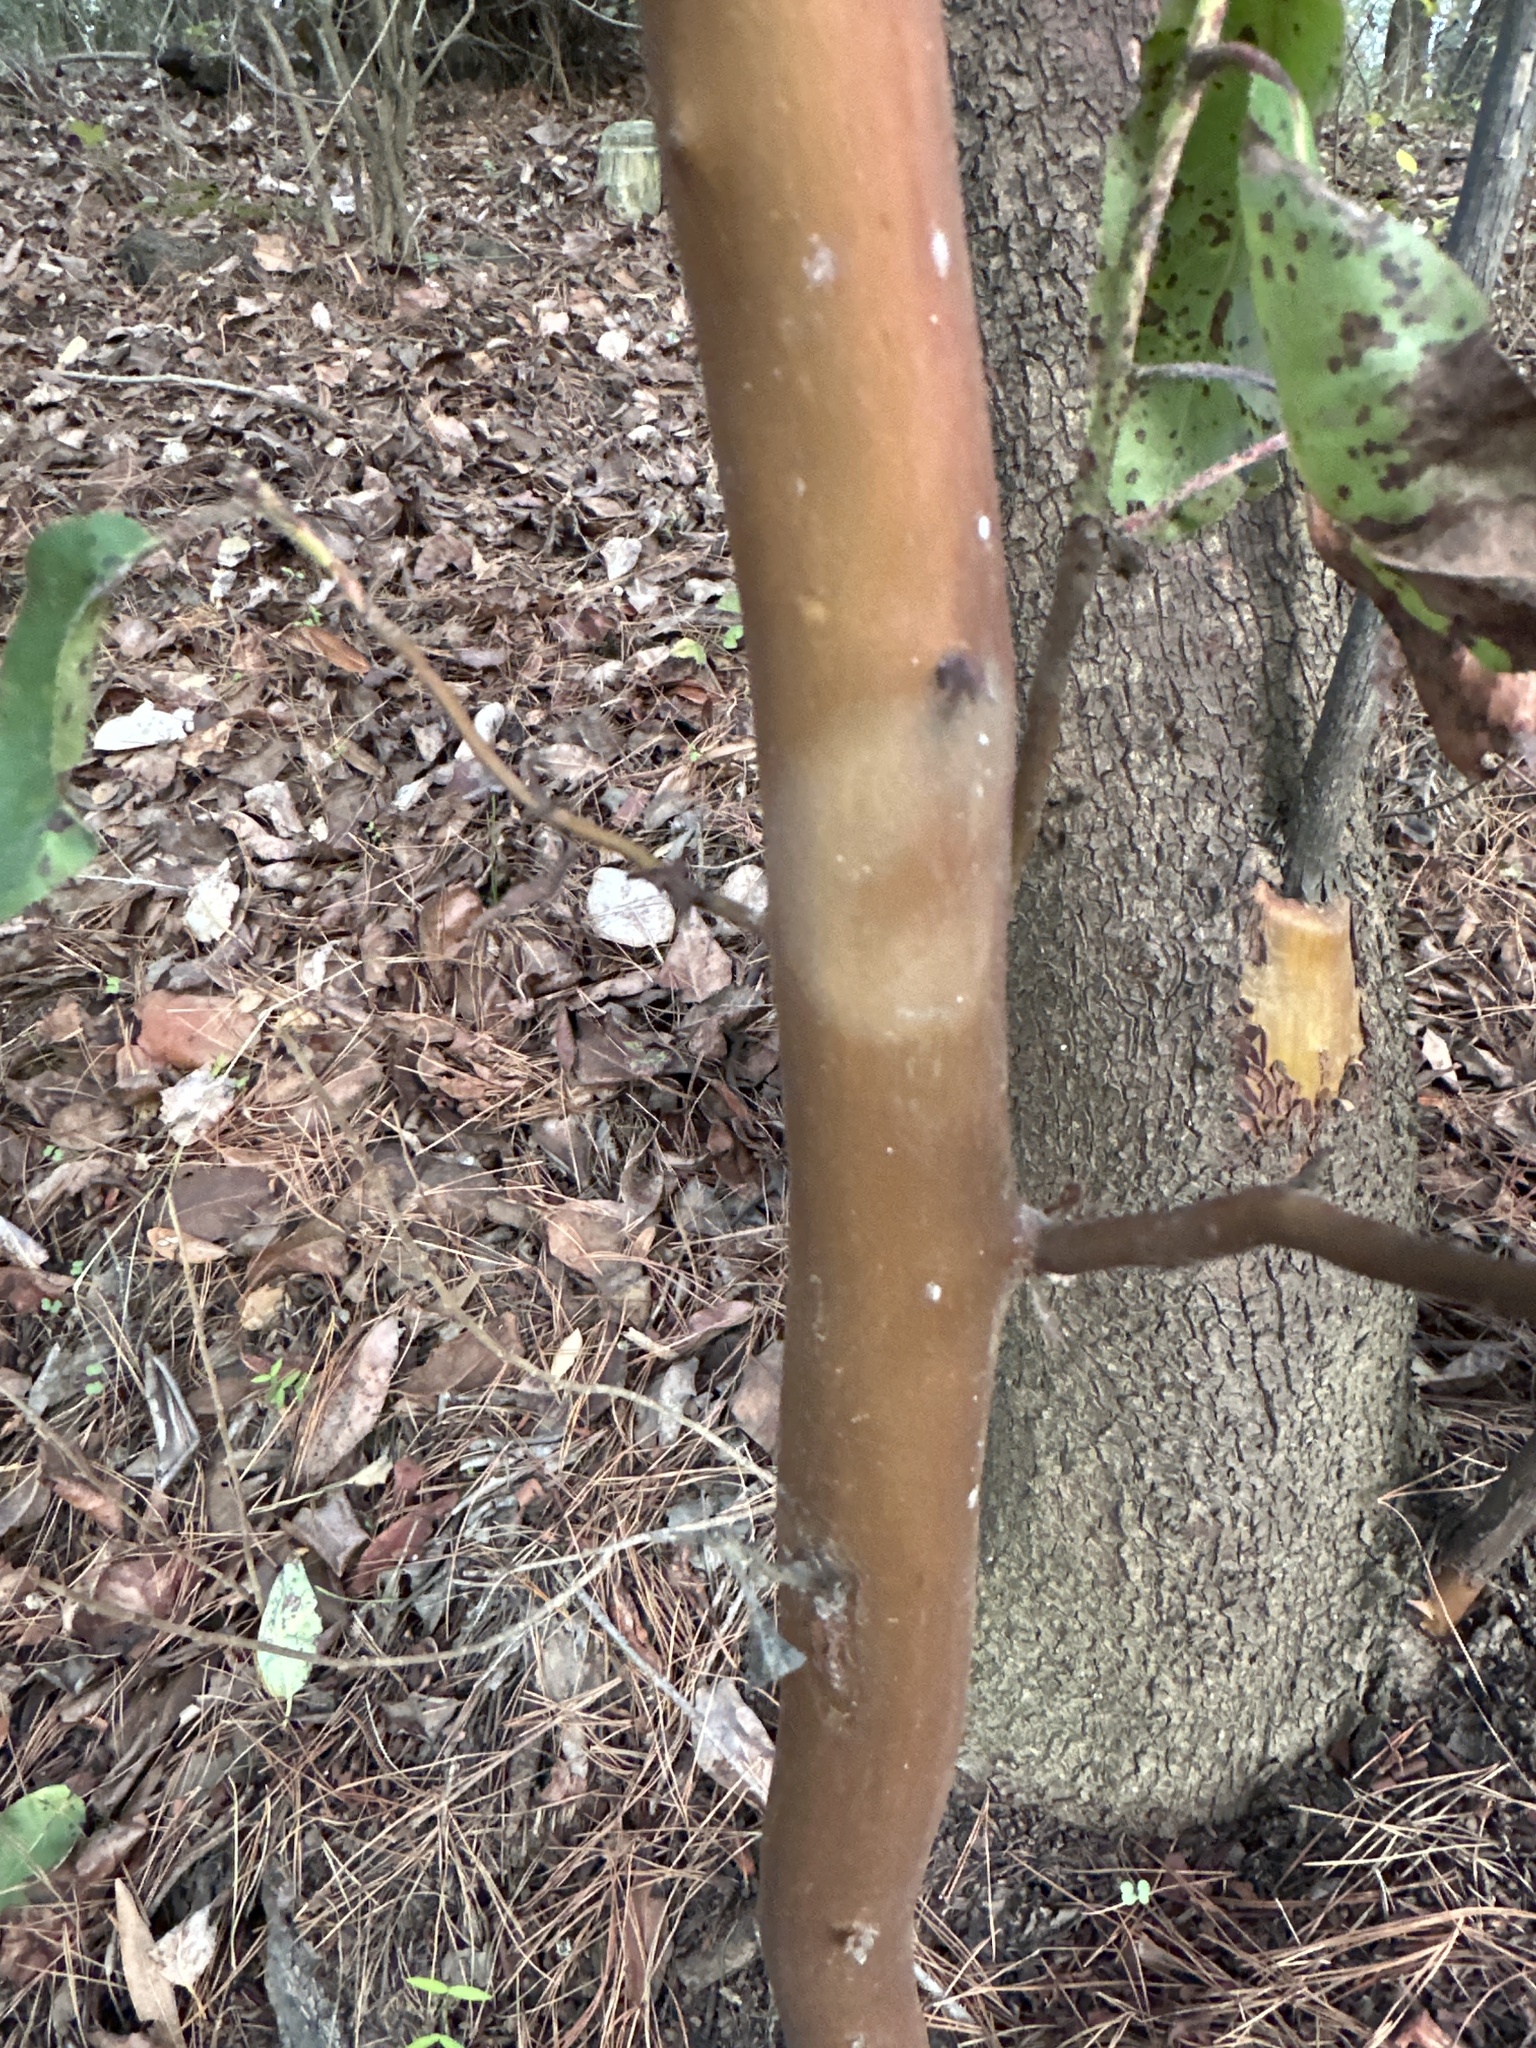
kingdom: Plantae
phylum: Tracheophyta
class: Magnoliopsida
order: Ericales
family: Ericaceae
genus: Arbutus
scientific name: Arbutus menziesii
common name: Pacific madrone
